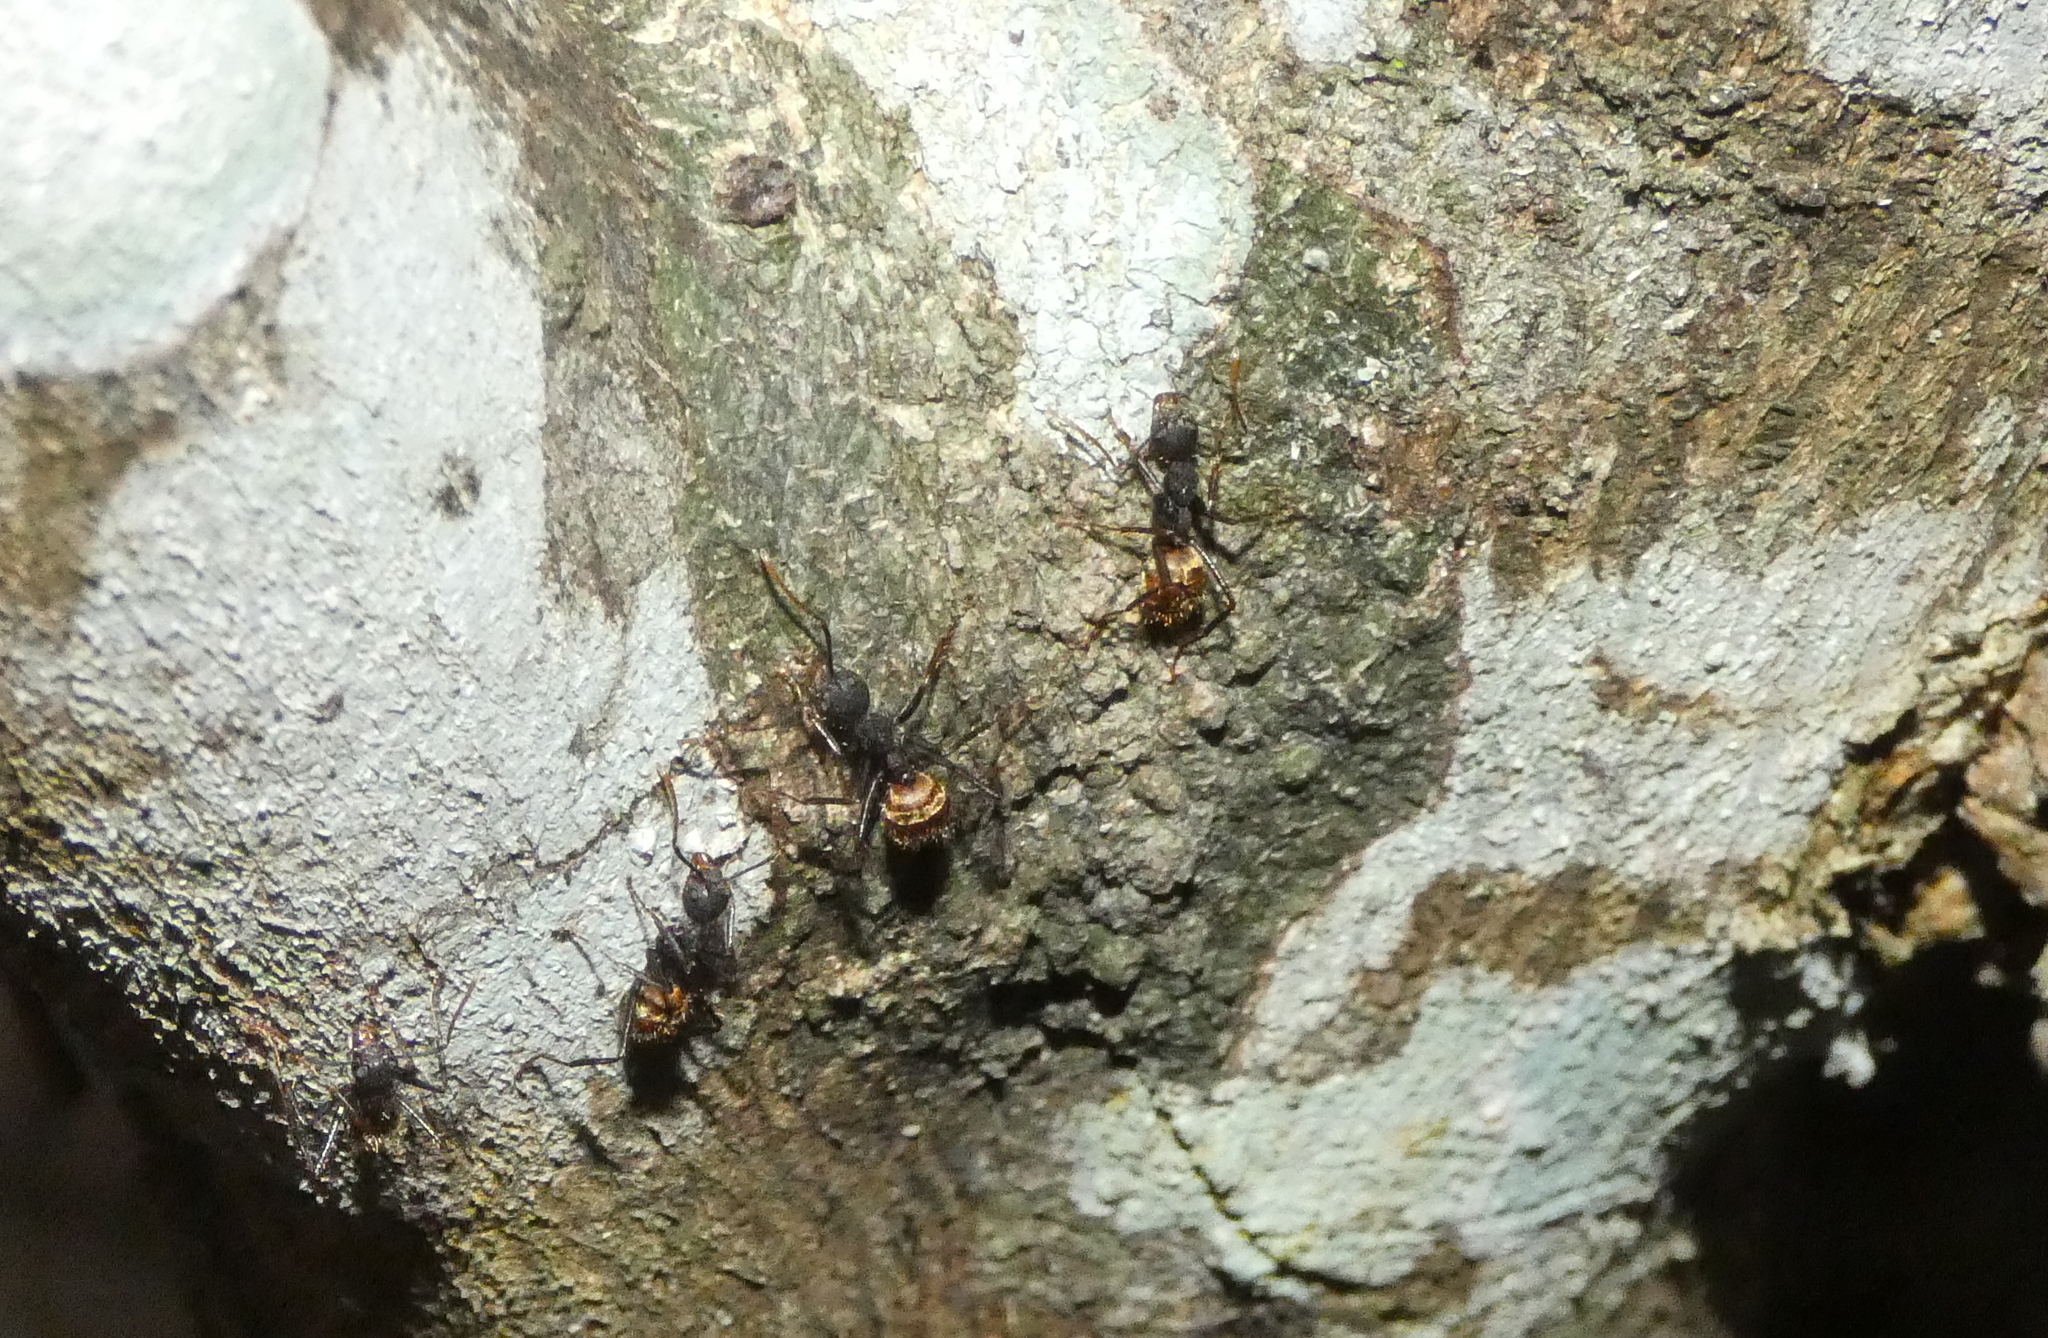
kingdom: Animalia
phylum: Arthropoda
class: Insecta
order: Hymenoptera
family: Formicidae
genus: Dolichoderus
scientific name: Dolichoderus bidens
